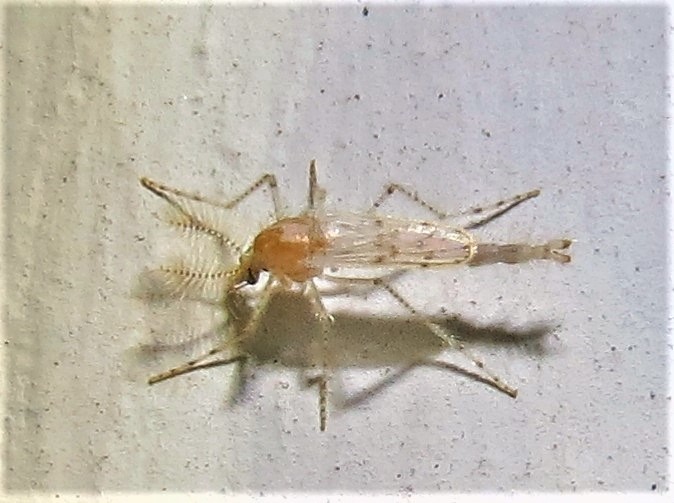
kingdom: Animalia
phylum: Arthropoda
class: Insecta
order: Diptera
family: Chaoboridae
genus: Chaoborus
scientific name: Chaoborus punctipennis
